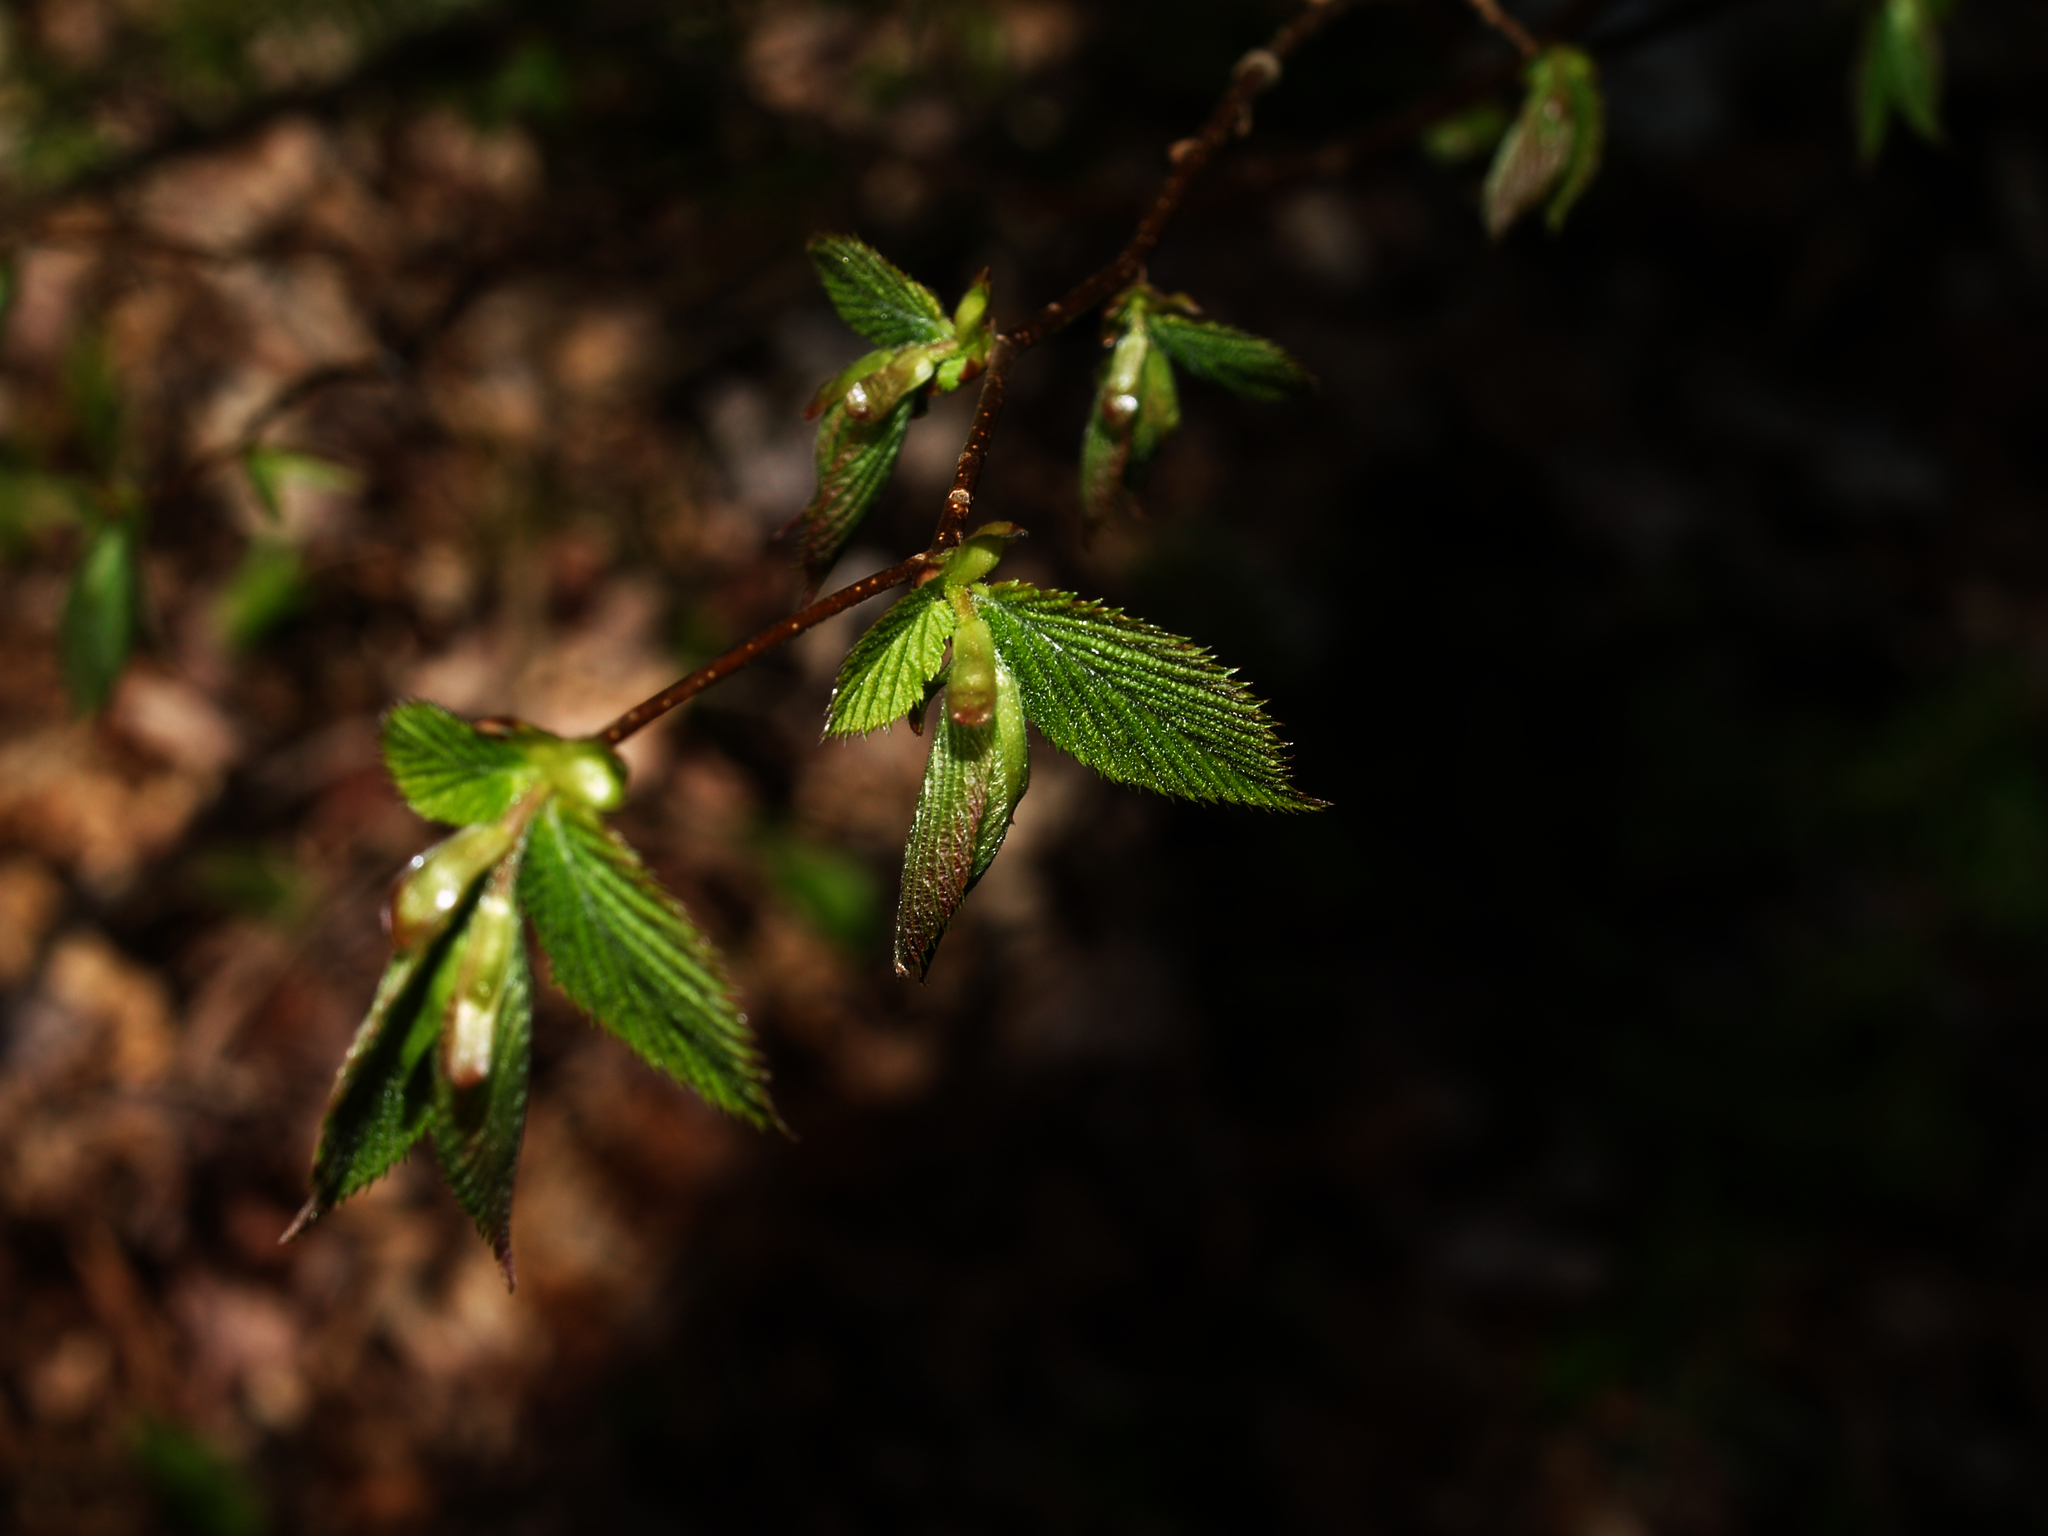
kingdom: Plantae
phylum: Tracheophyta
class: Magnoliopsida
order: Fagales
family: Fagaceae
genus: Fagus
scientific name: Fagus grandifolia
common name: American beech
